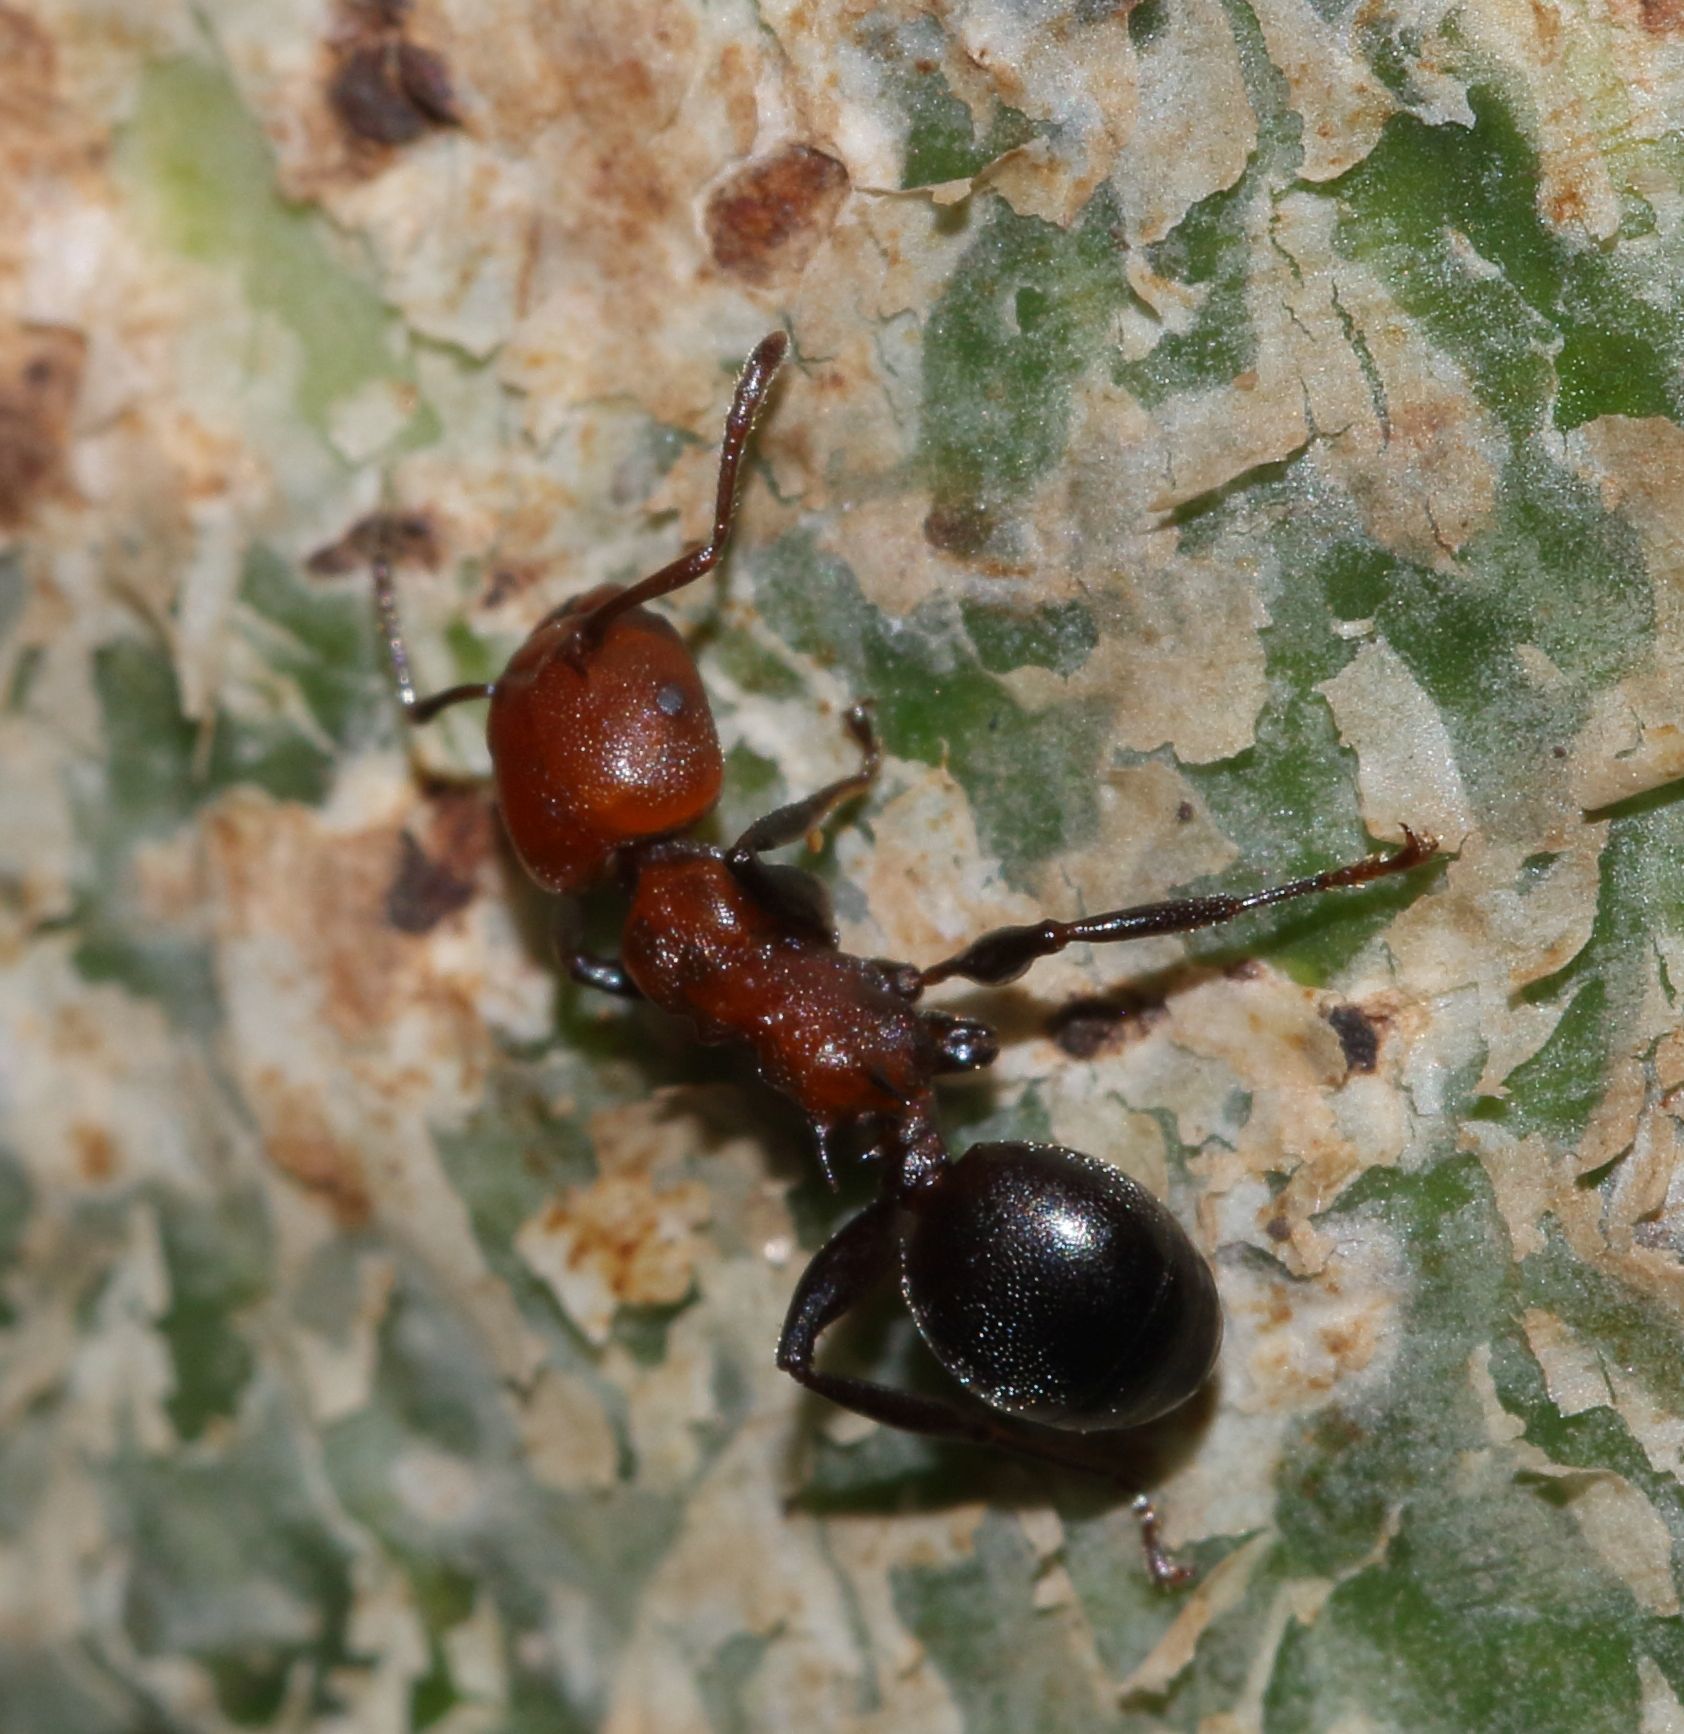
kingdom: Animalia
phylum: Arthropoda
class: Insecta
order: Hymenoptera
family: Formicidae
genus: Atopomyrmex
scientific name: Atopomyrmex mocquerysi
